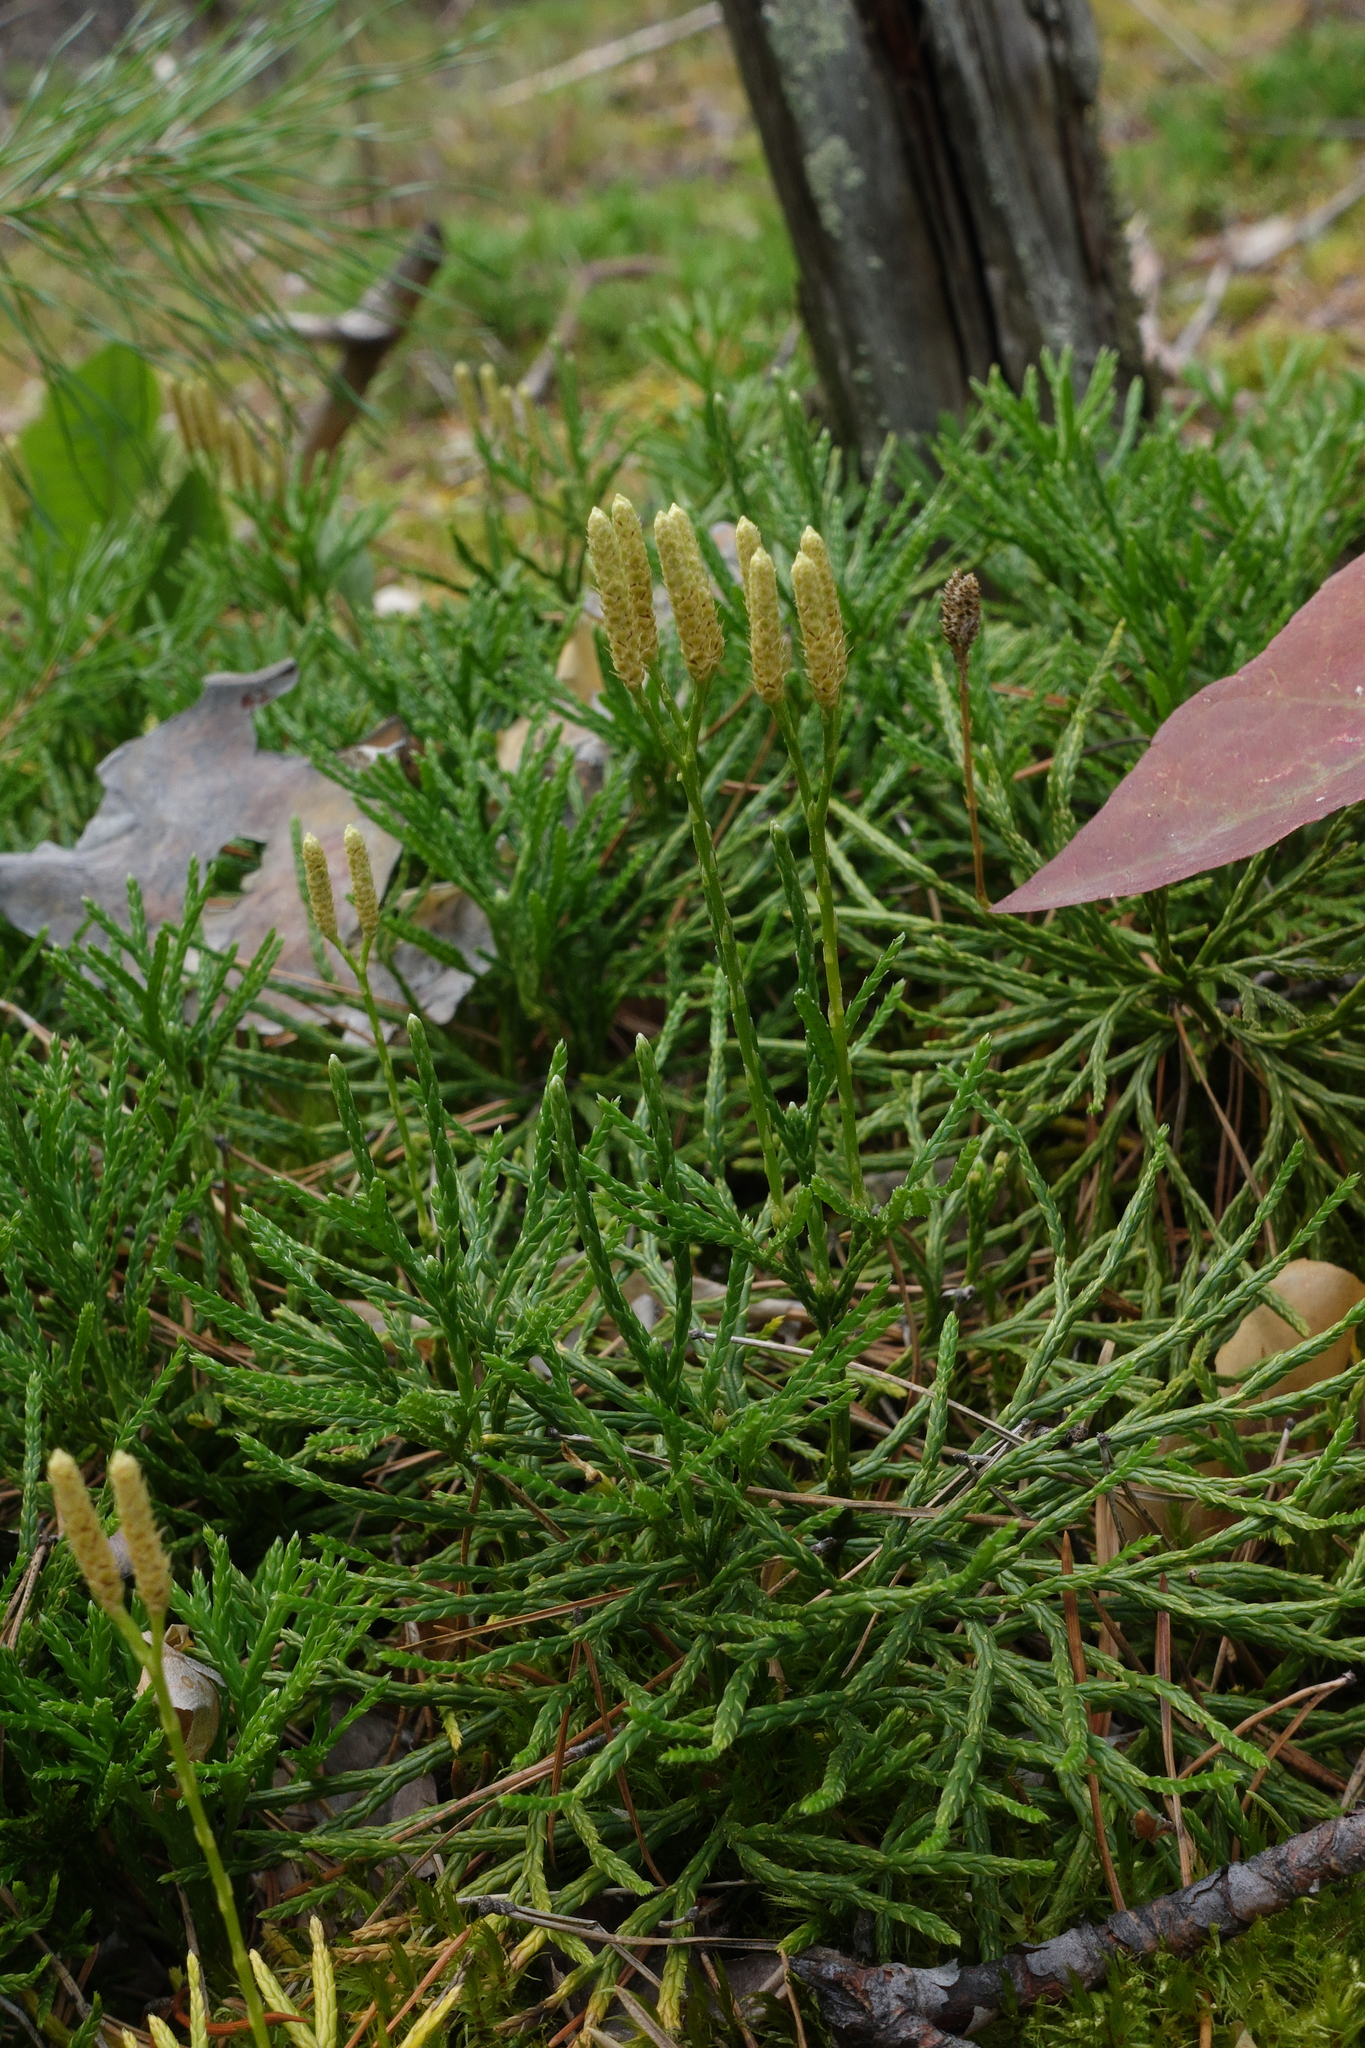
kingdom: Plantae
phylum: Tracheophyta
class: Lycopodiopsida
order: Lycopodiales
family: Lycopodiaceae
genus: Diphasiastrum
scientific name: Diphasiastrum complanatum
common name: Northern running-pine
